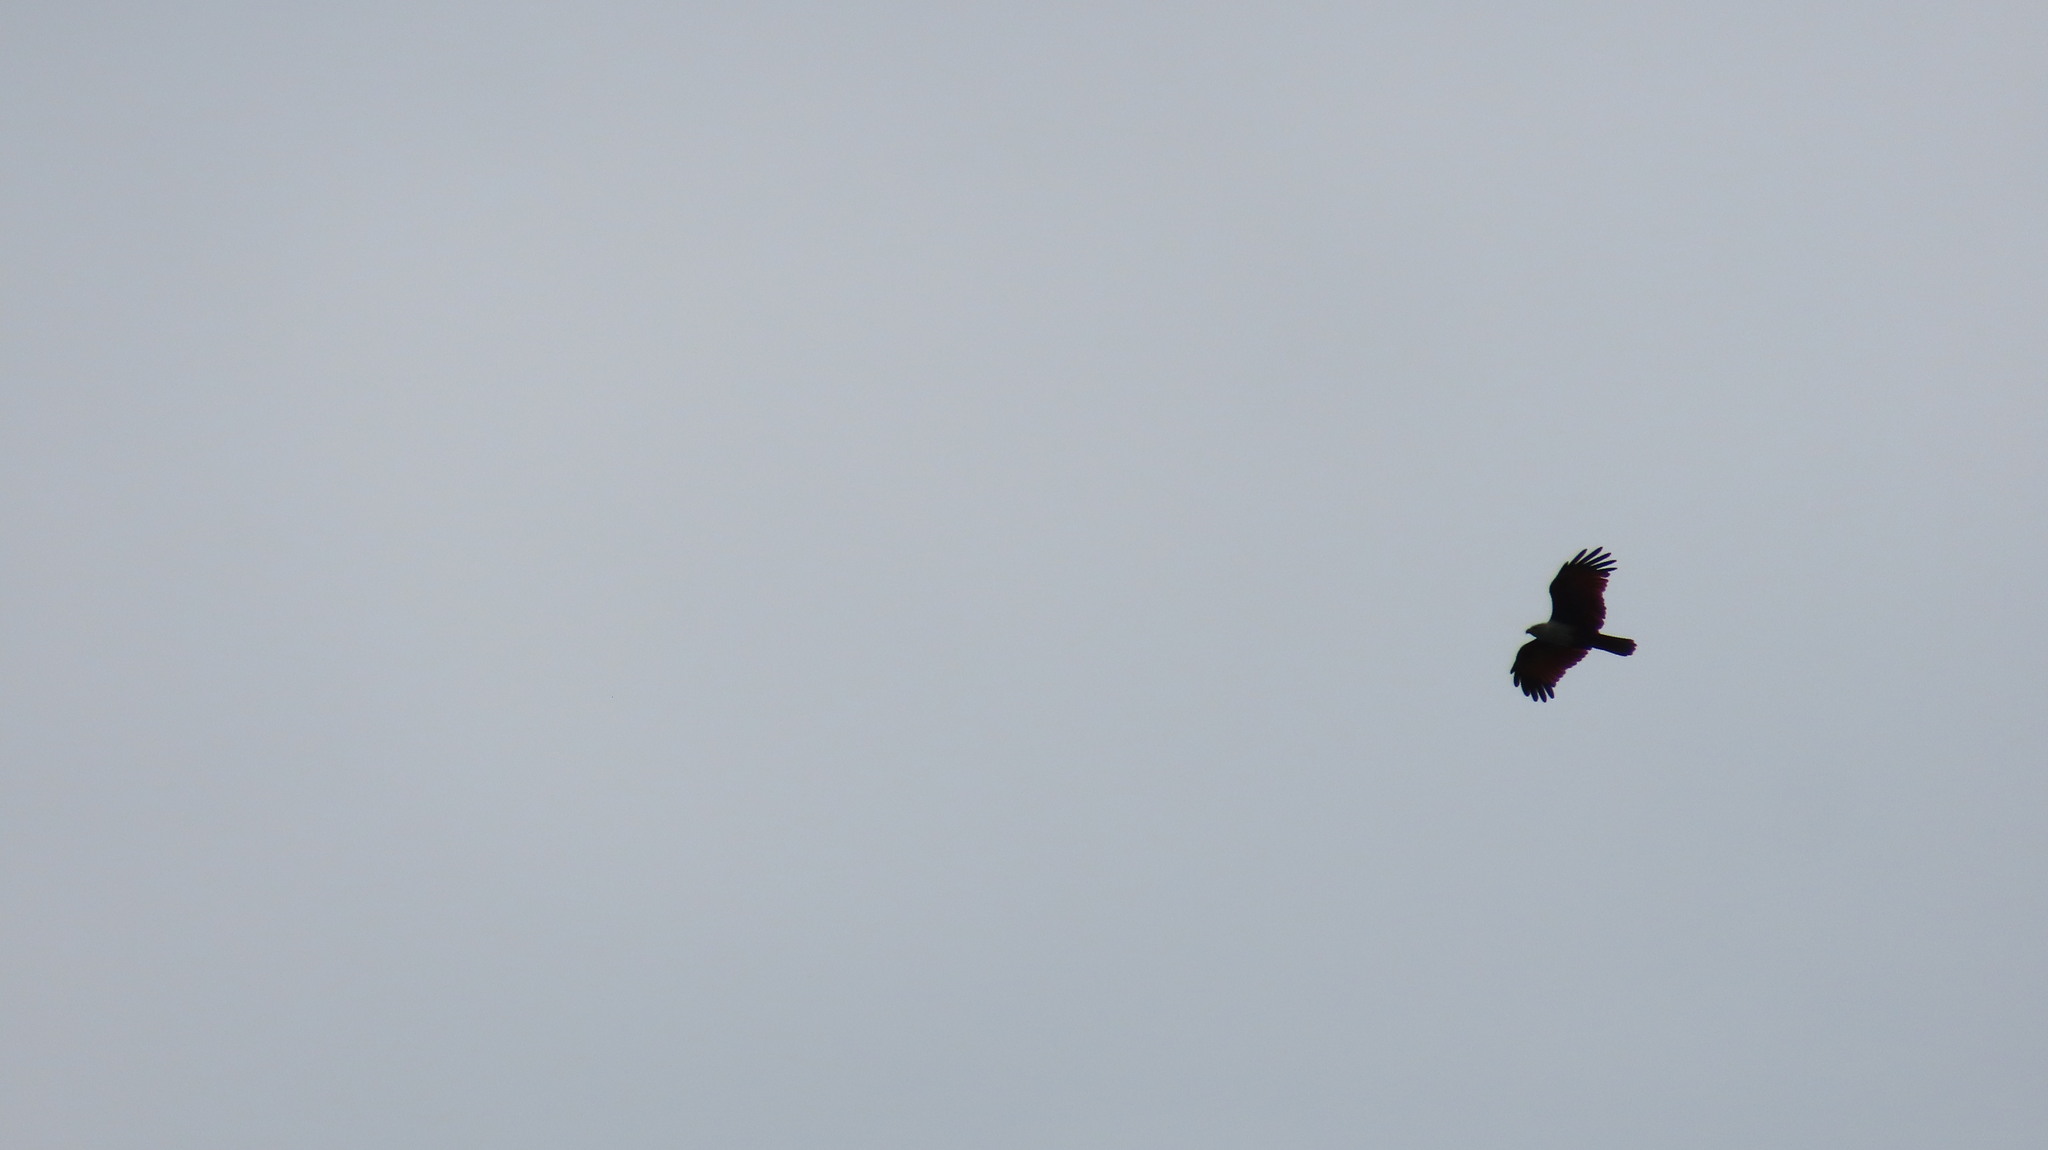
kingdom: Animalia
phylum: Chordata
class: Aves
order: Accipitriformes
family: Accipitridae
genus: Haliastur
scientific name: Haliastur indus
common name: Brahminy kite
